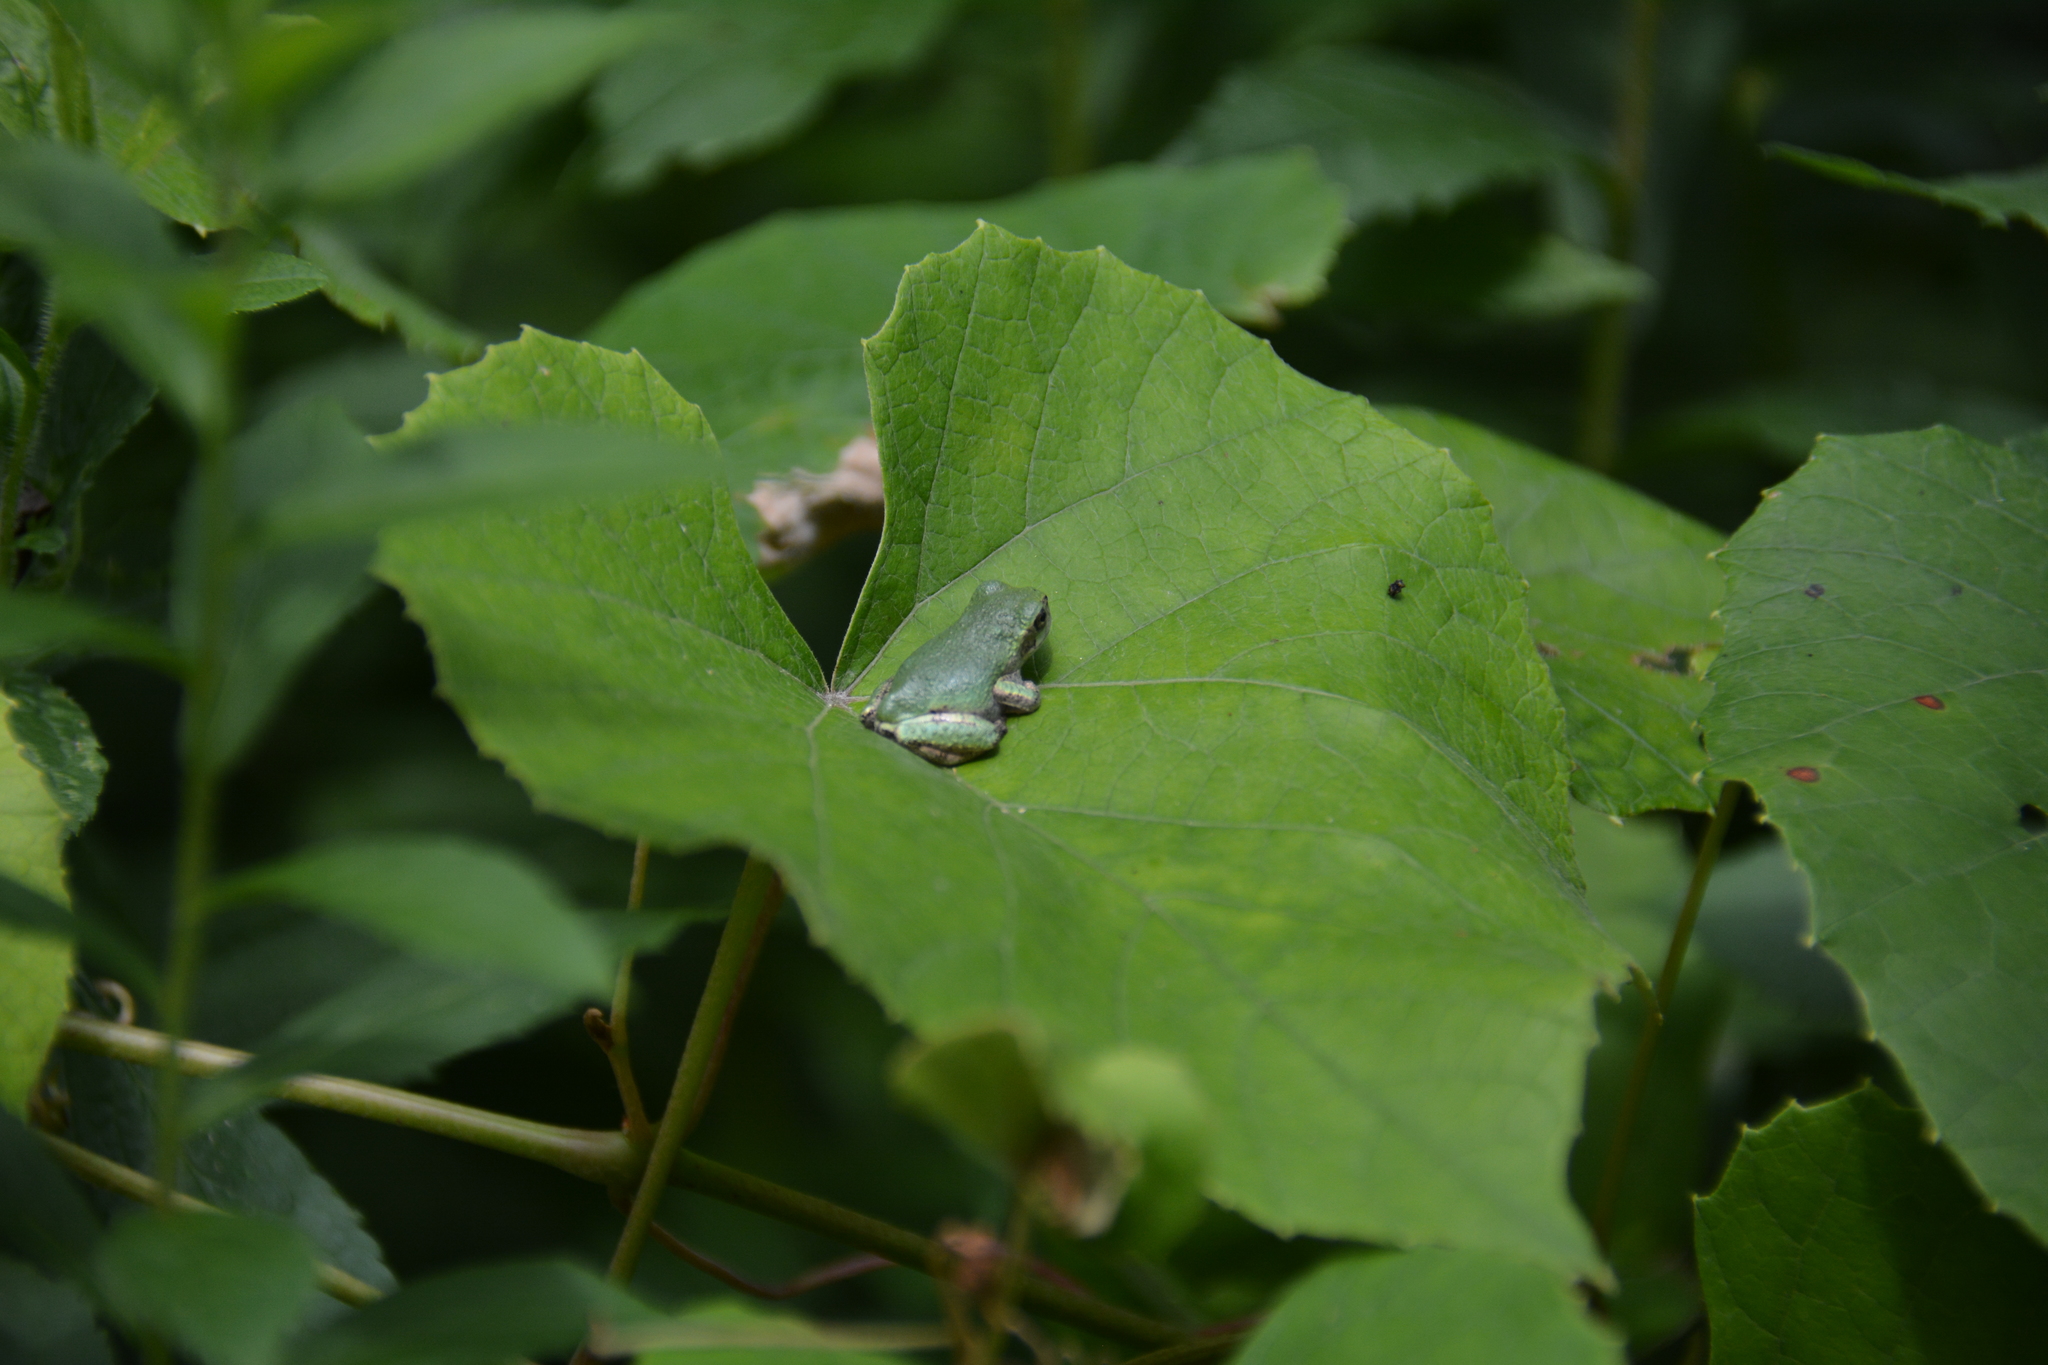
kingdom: Animalia
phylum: Chordata
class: Amphibia
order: Anura
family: Hylidae
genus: Dryophytes
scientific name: Dryophytes versicolor
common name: Gray treefrog
